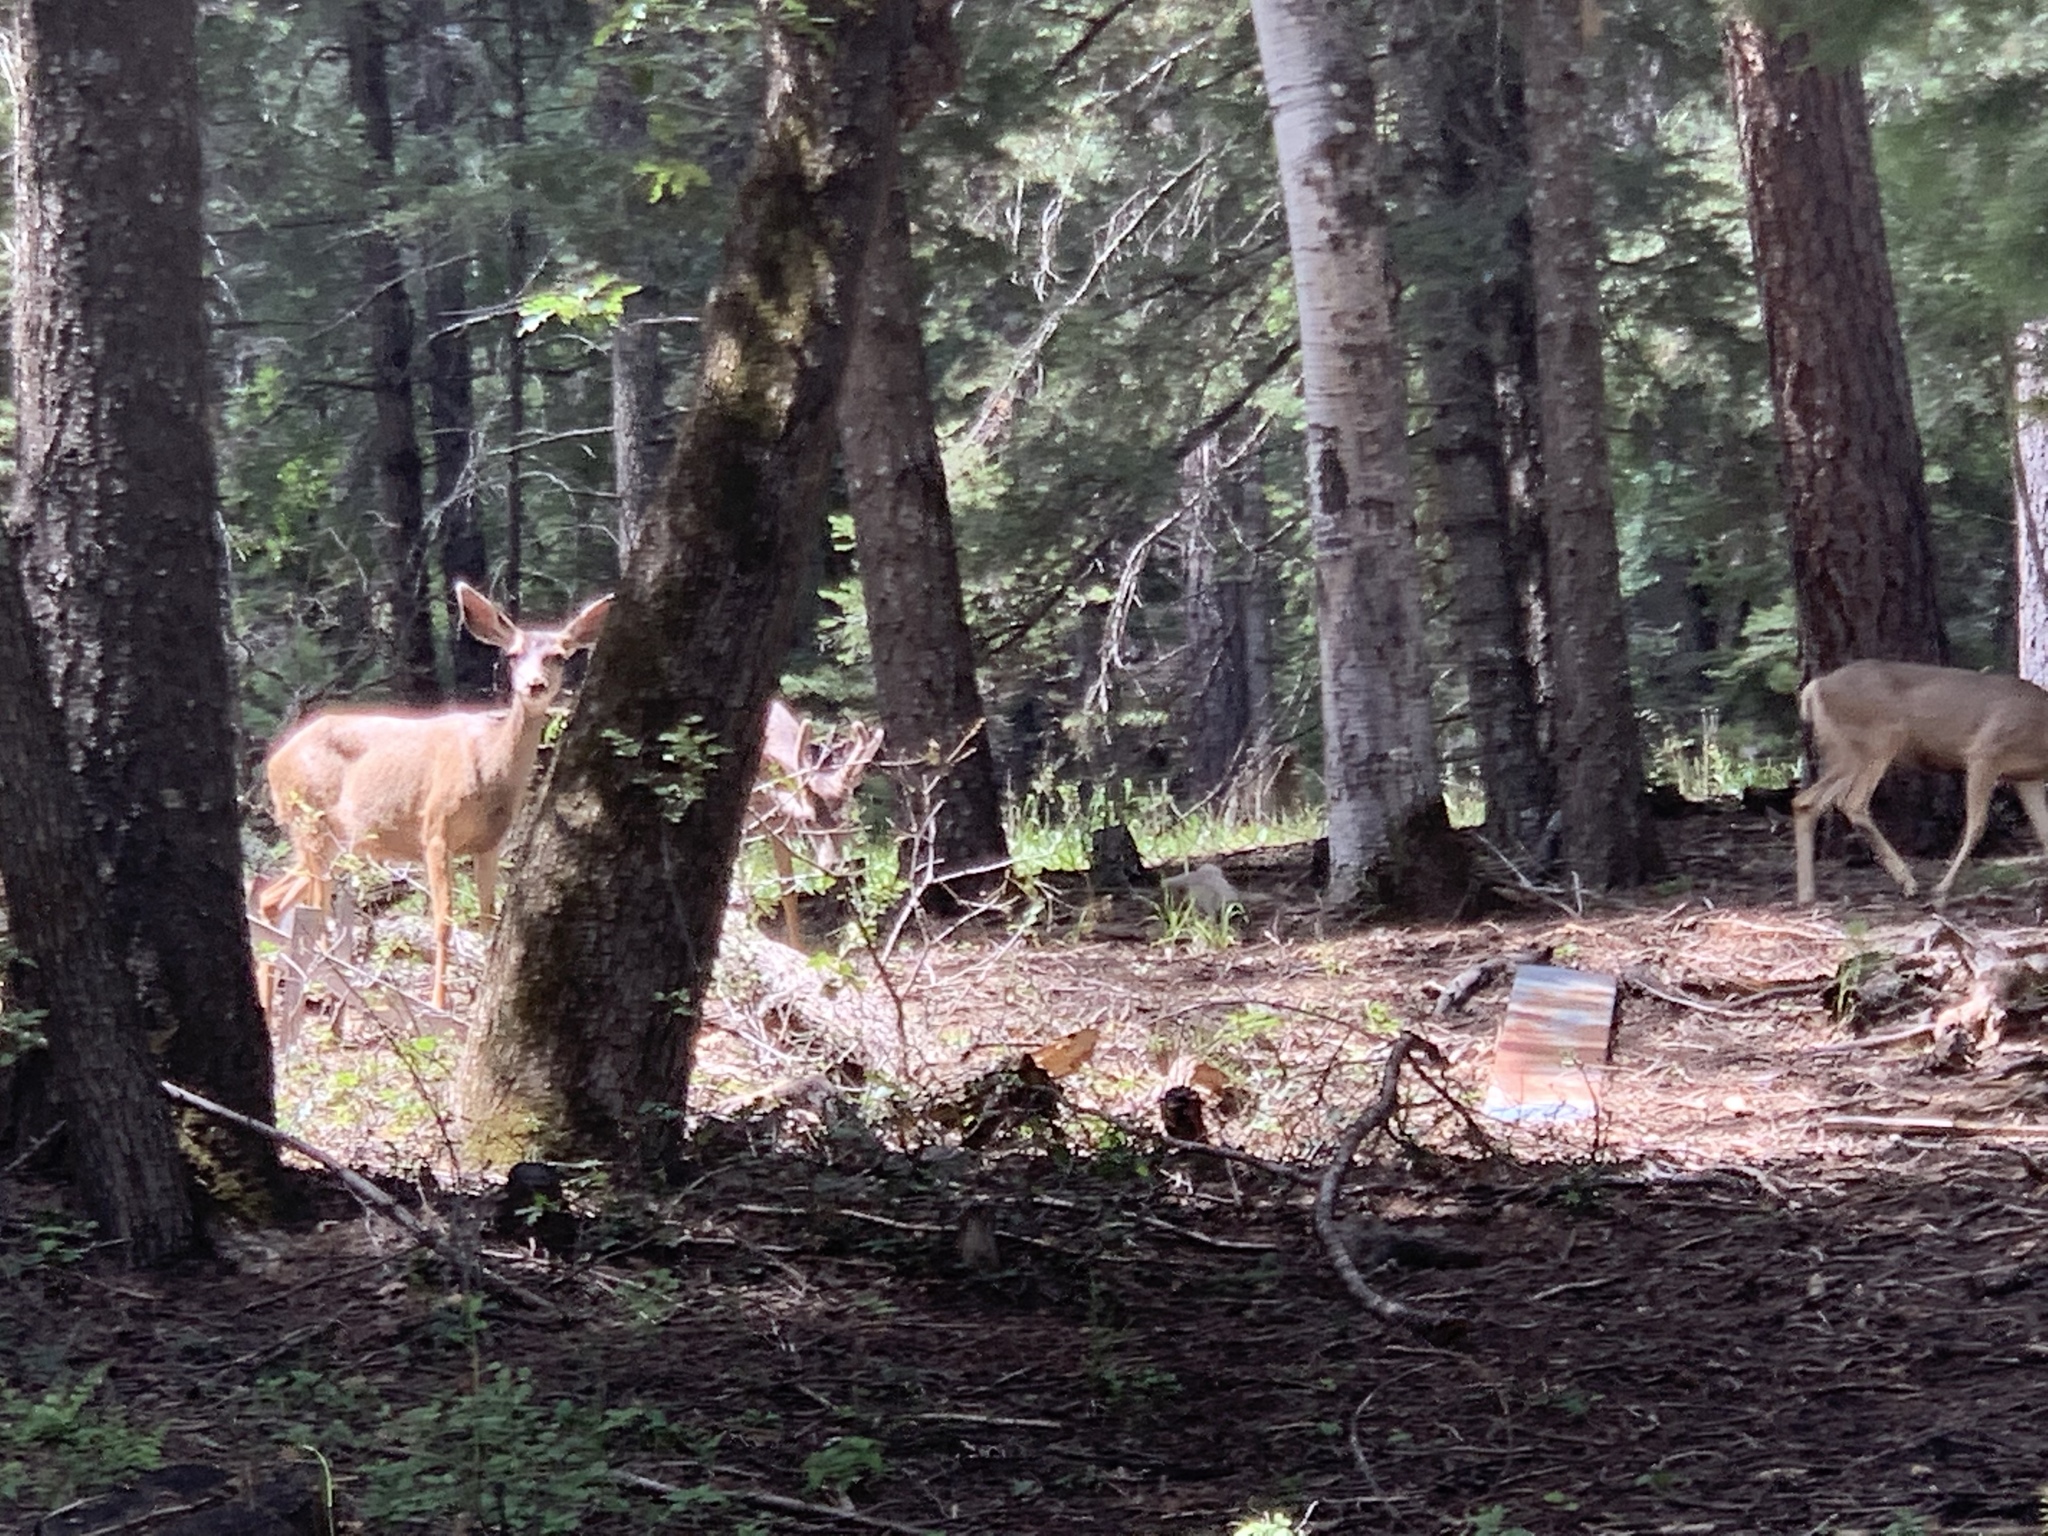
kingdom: Animalia
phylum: Chordata
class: Mammalia
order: Artiodactyla
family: Cervidae
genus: Odocoileus
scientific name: Odocoileus hemionus
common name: Mule deer
